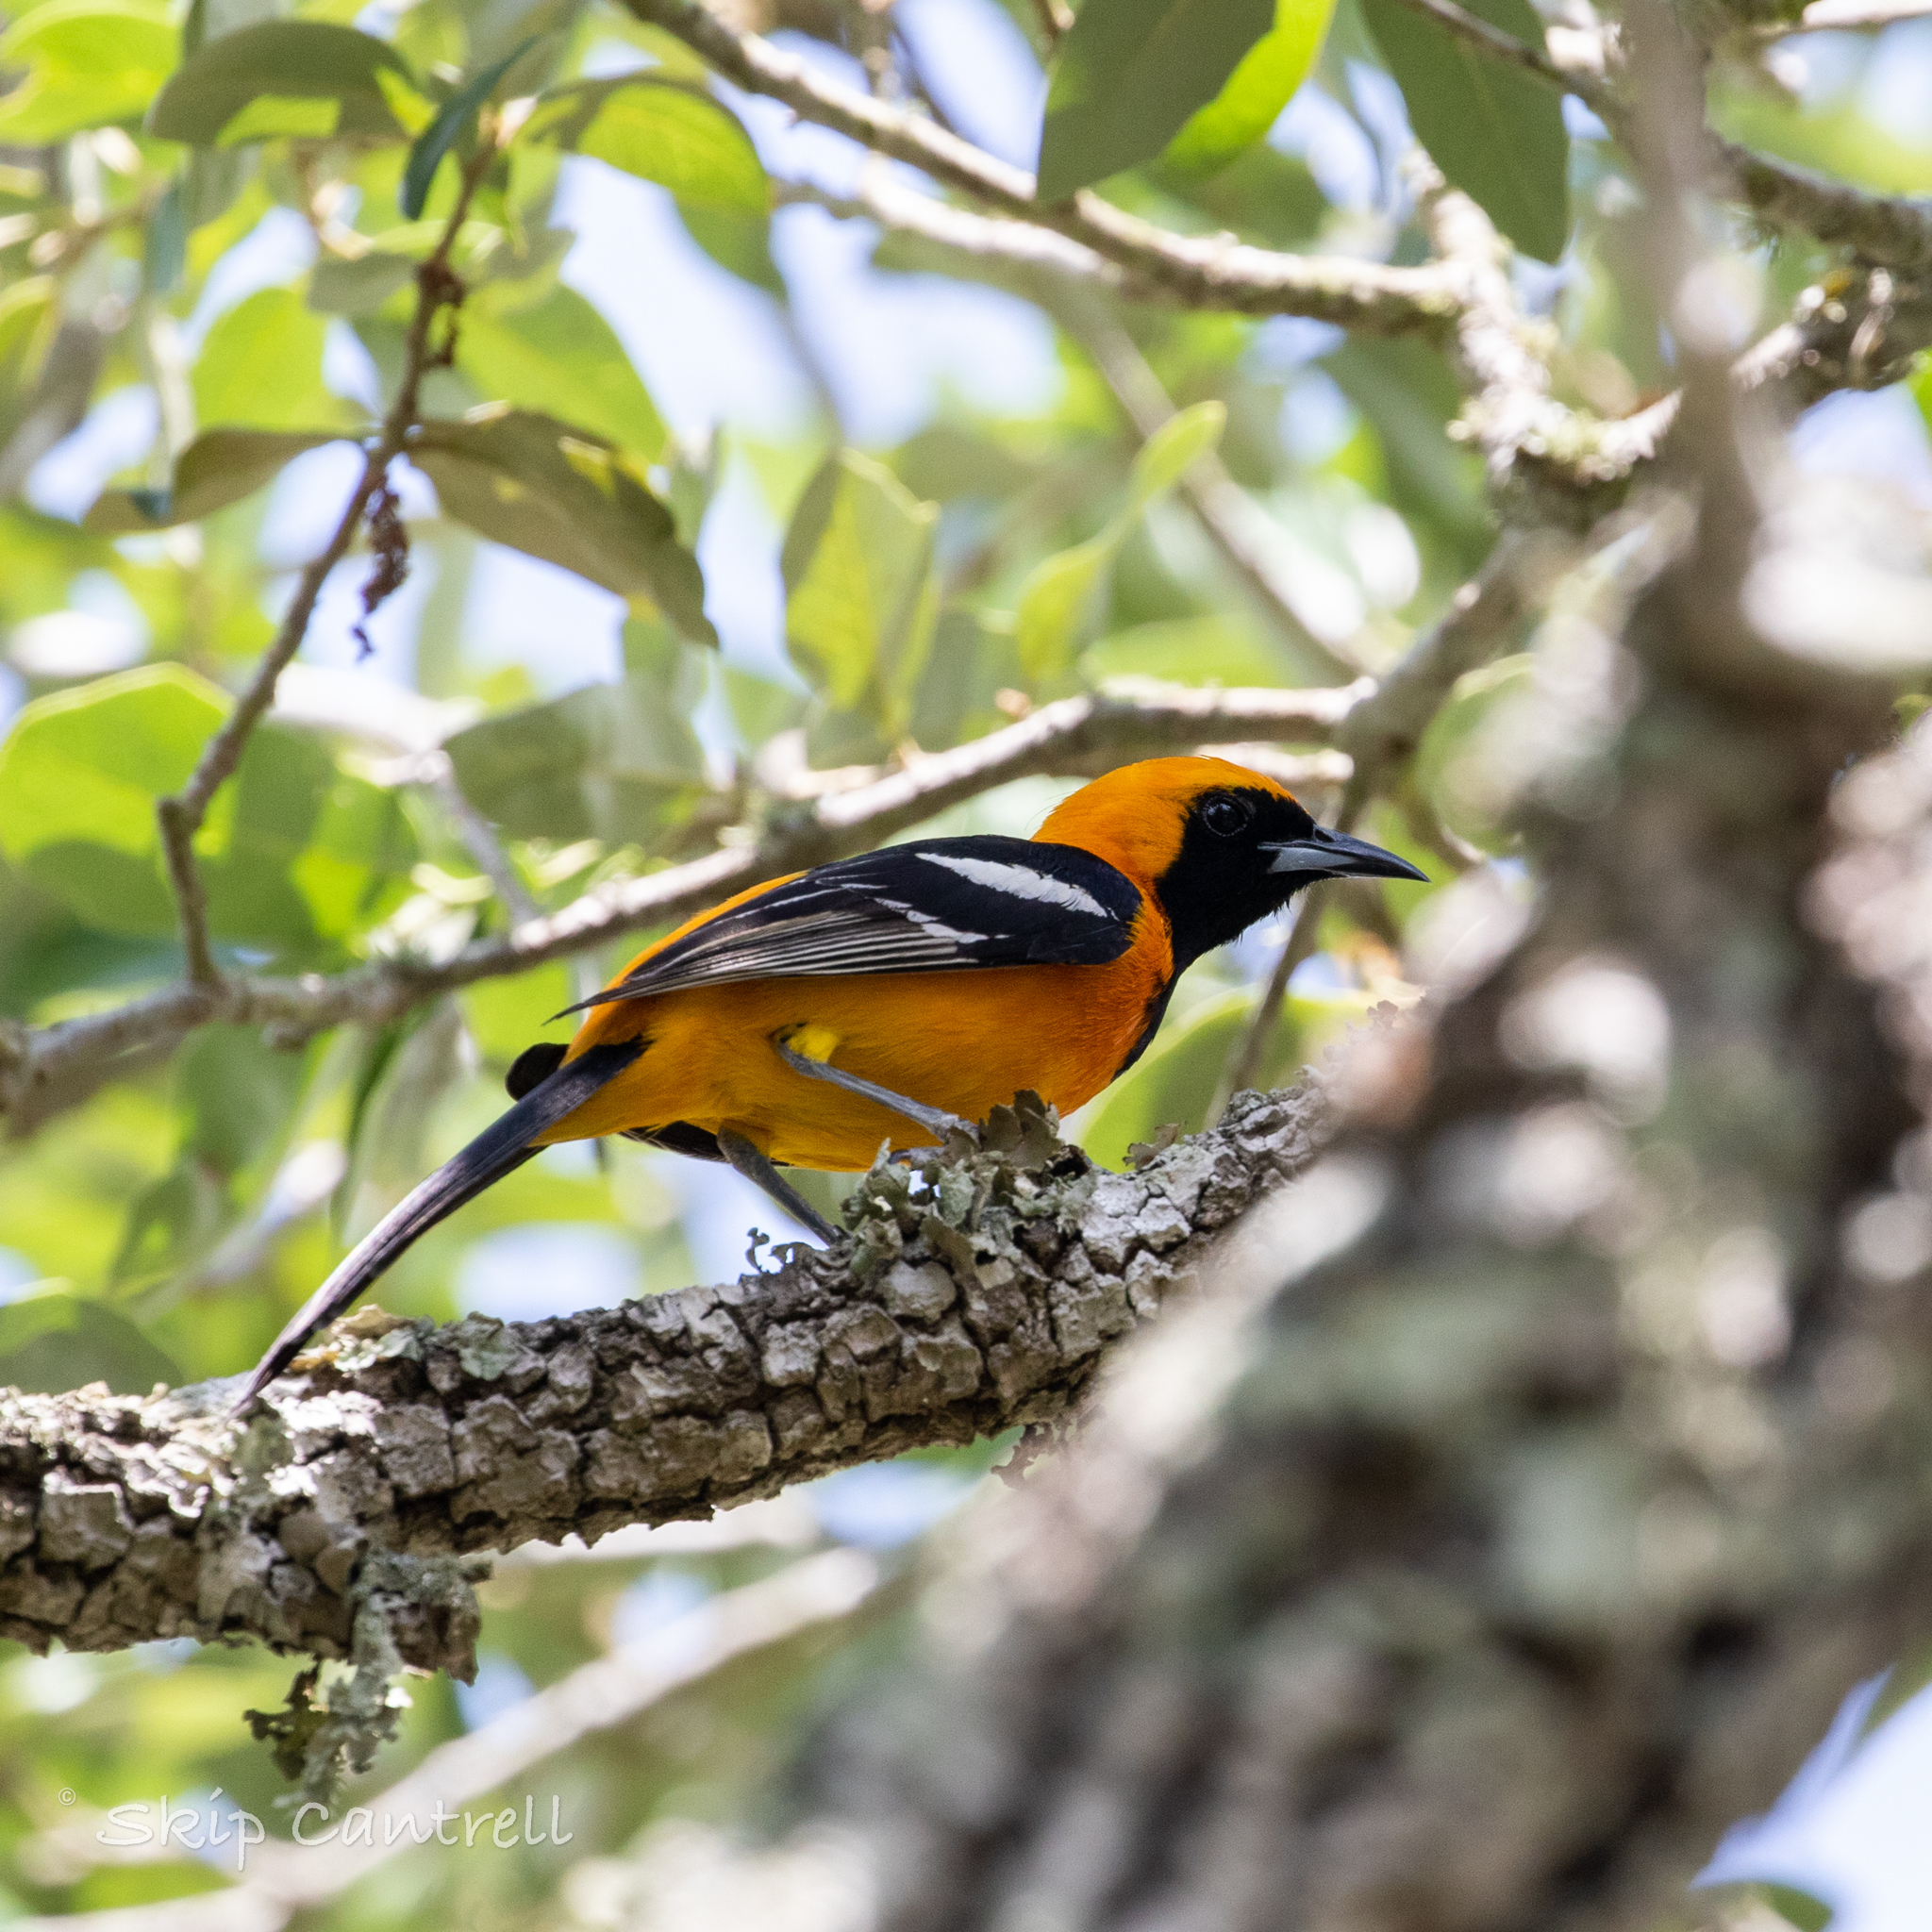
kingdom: Animalia
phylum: Chordata
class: Aves
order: Passeriformes
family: Icteridae
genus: Icterus
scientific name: Icterus cucullatus
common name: Hooded oriole
